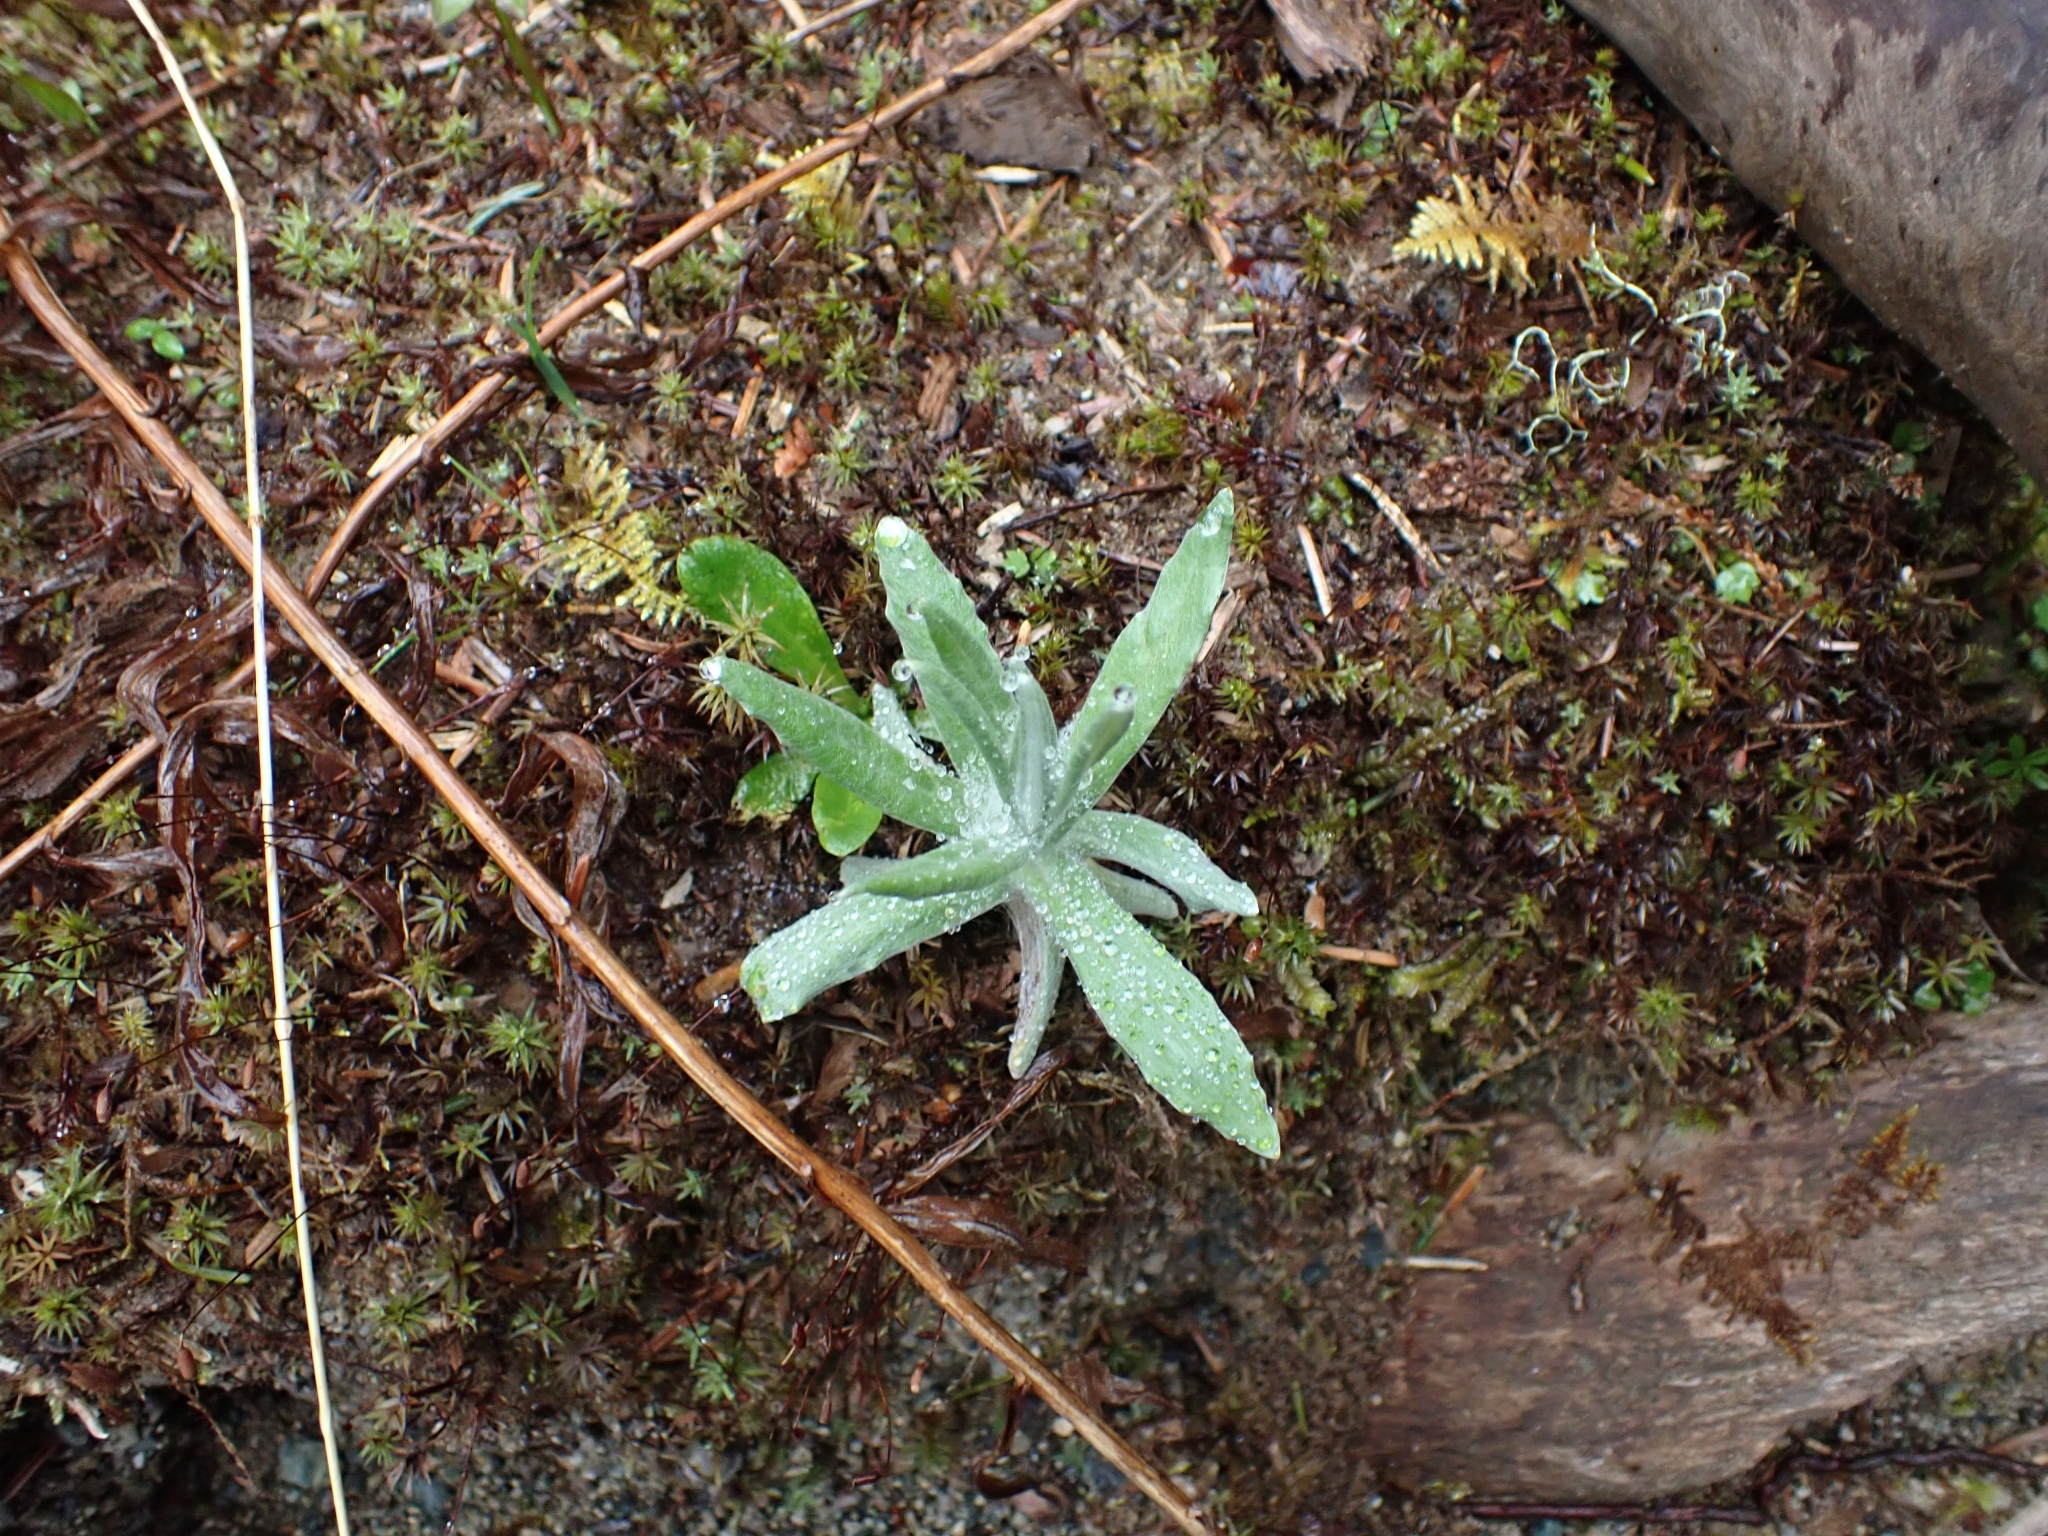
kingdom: Plantae
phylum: Tracheophyta
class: Magnoliopsida
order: Asterales
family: Asteraceae
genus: Anaphalis
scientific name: Anaphalis margaritacea
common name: Pearly everlasting
